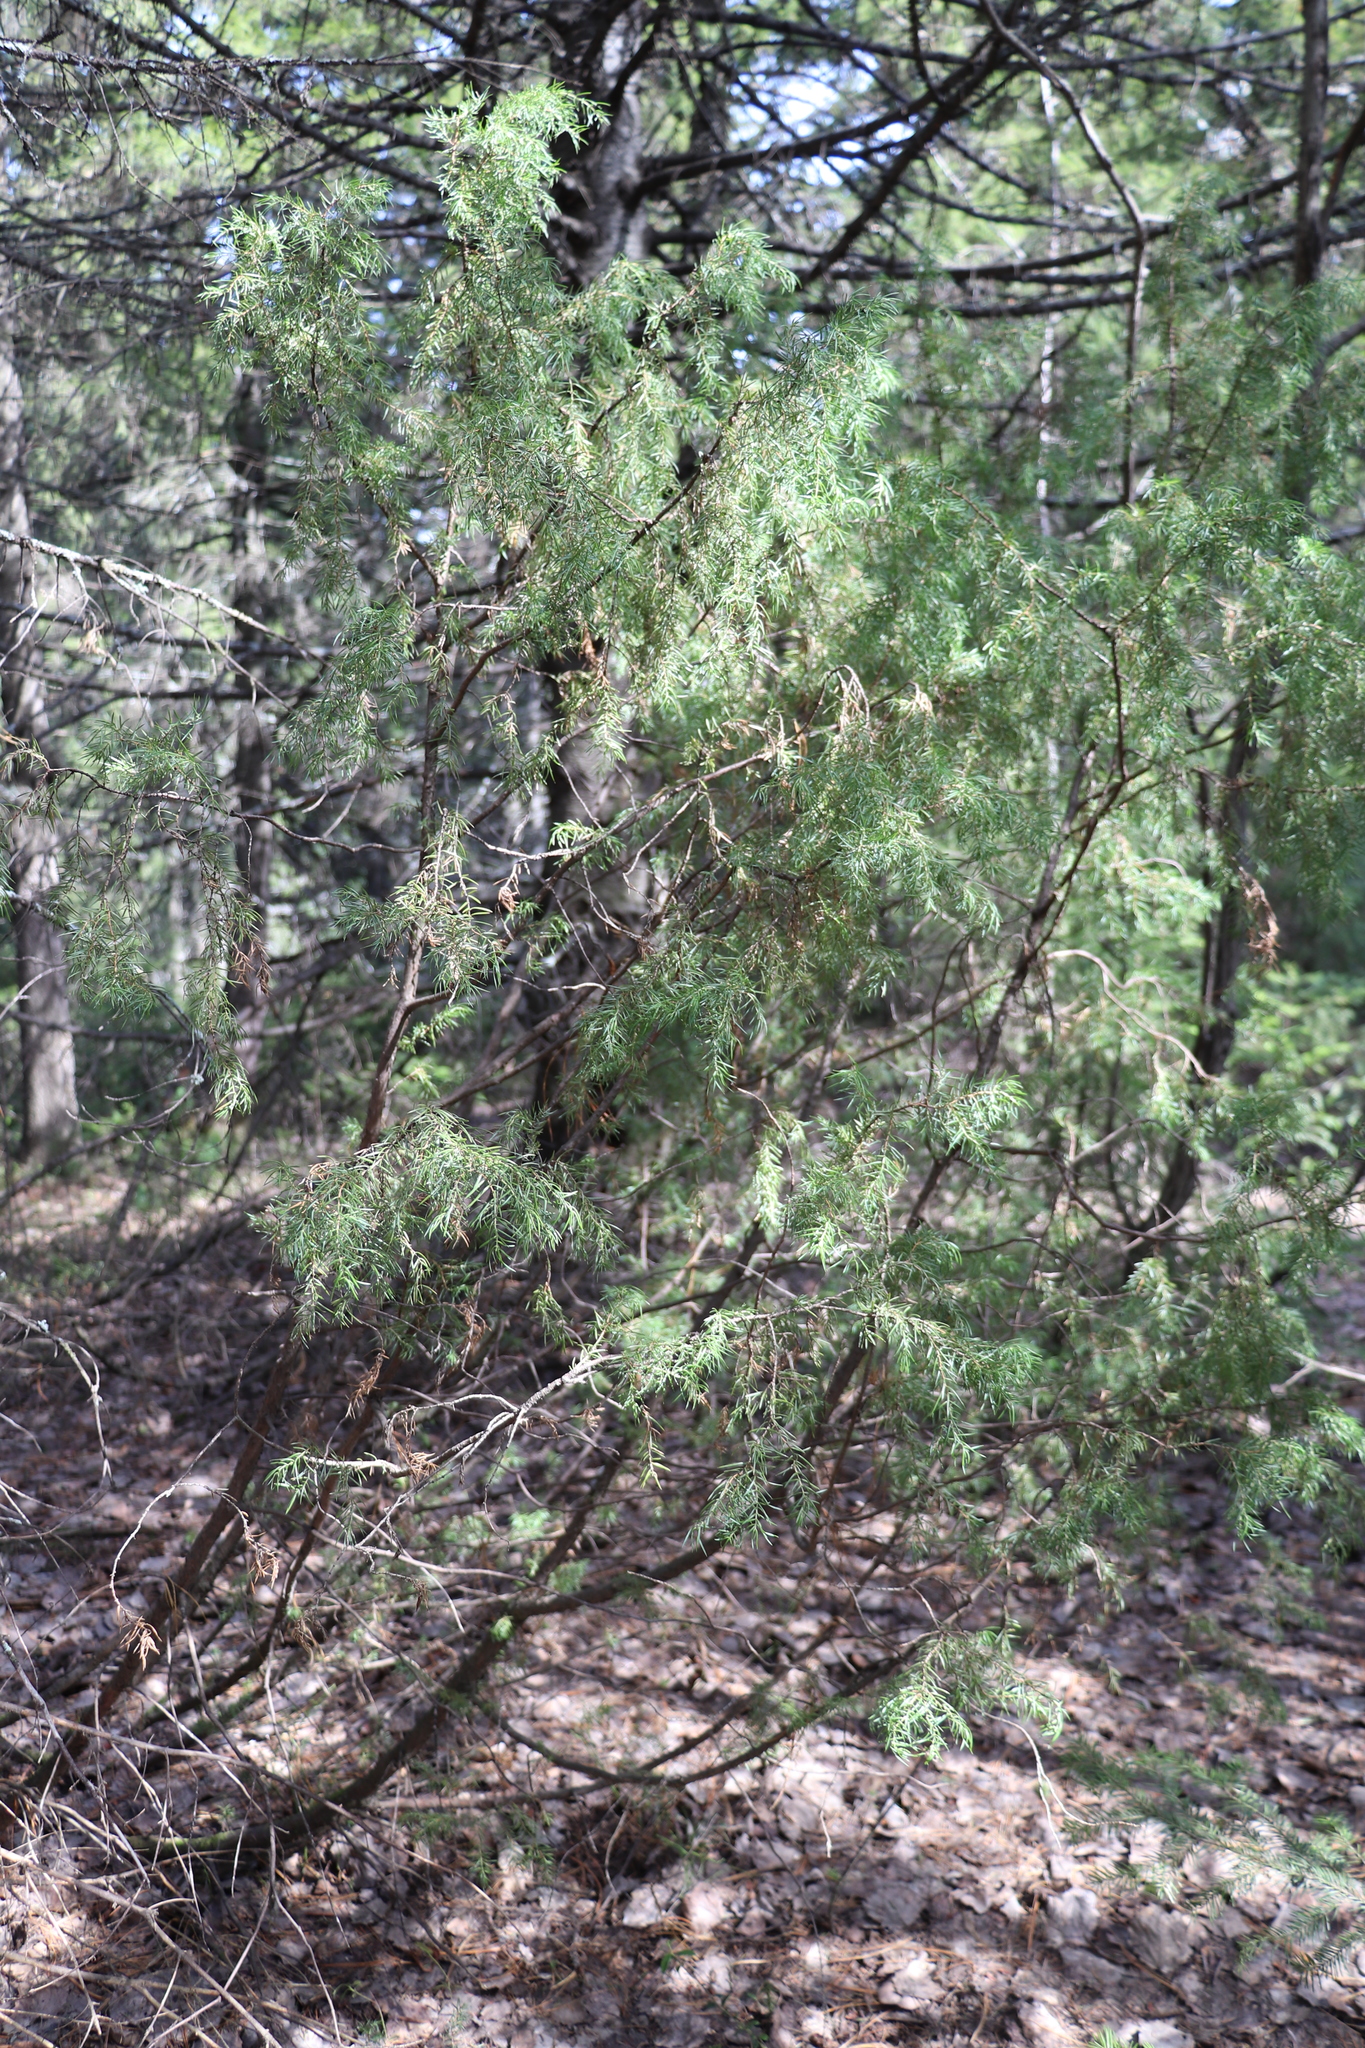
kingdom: Plantae
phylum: Tracheophyta
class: Pinopsida
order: Pinales
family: Cupressaceae
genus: Juniperus
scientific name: Juniperus communis
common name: Common juniper
